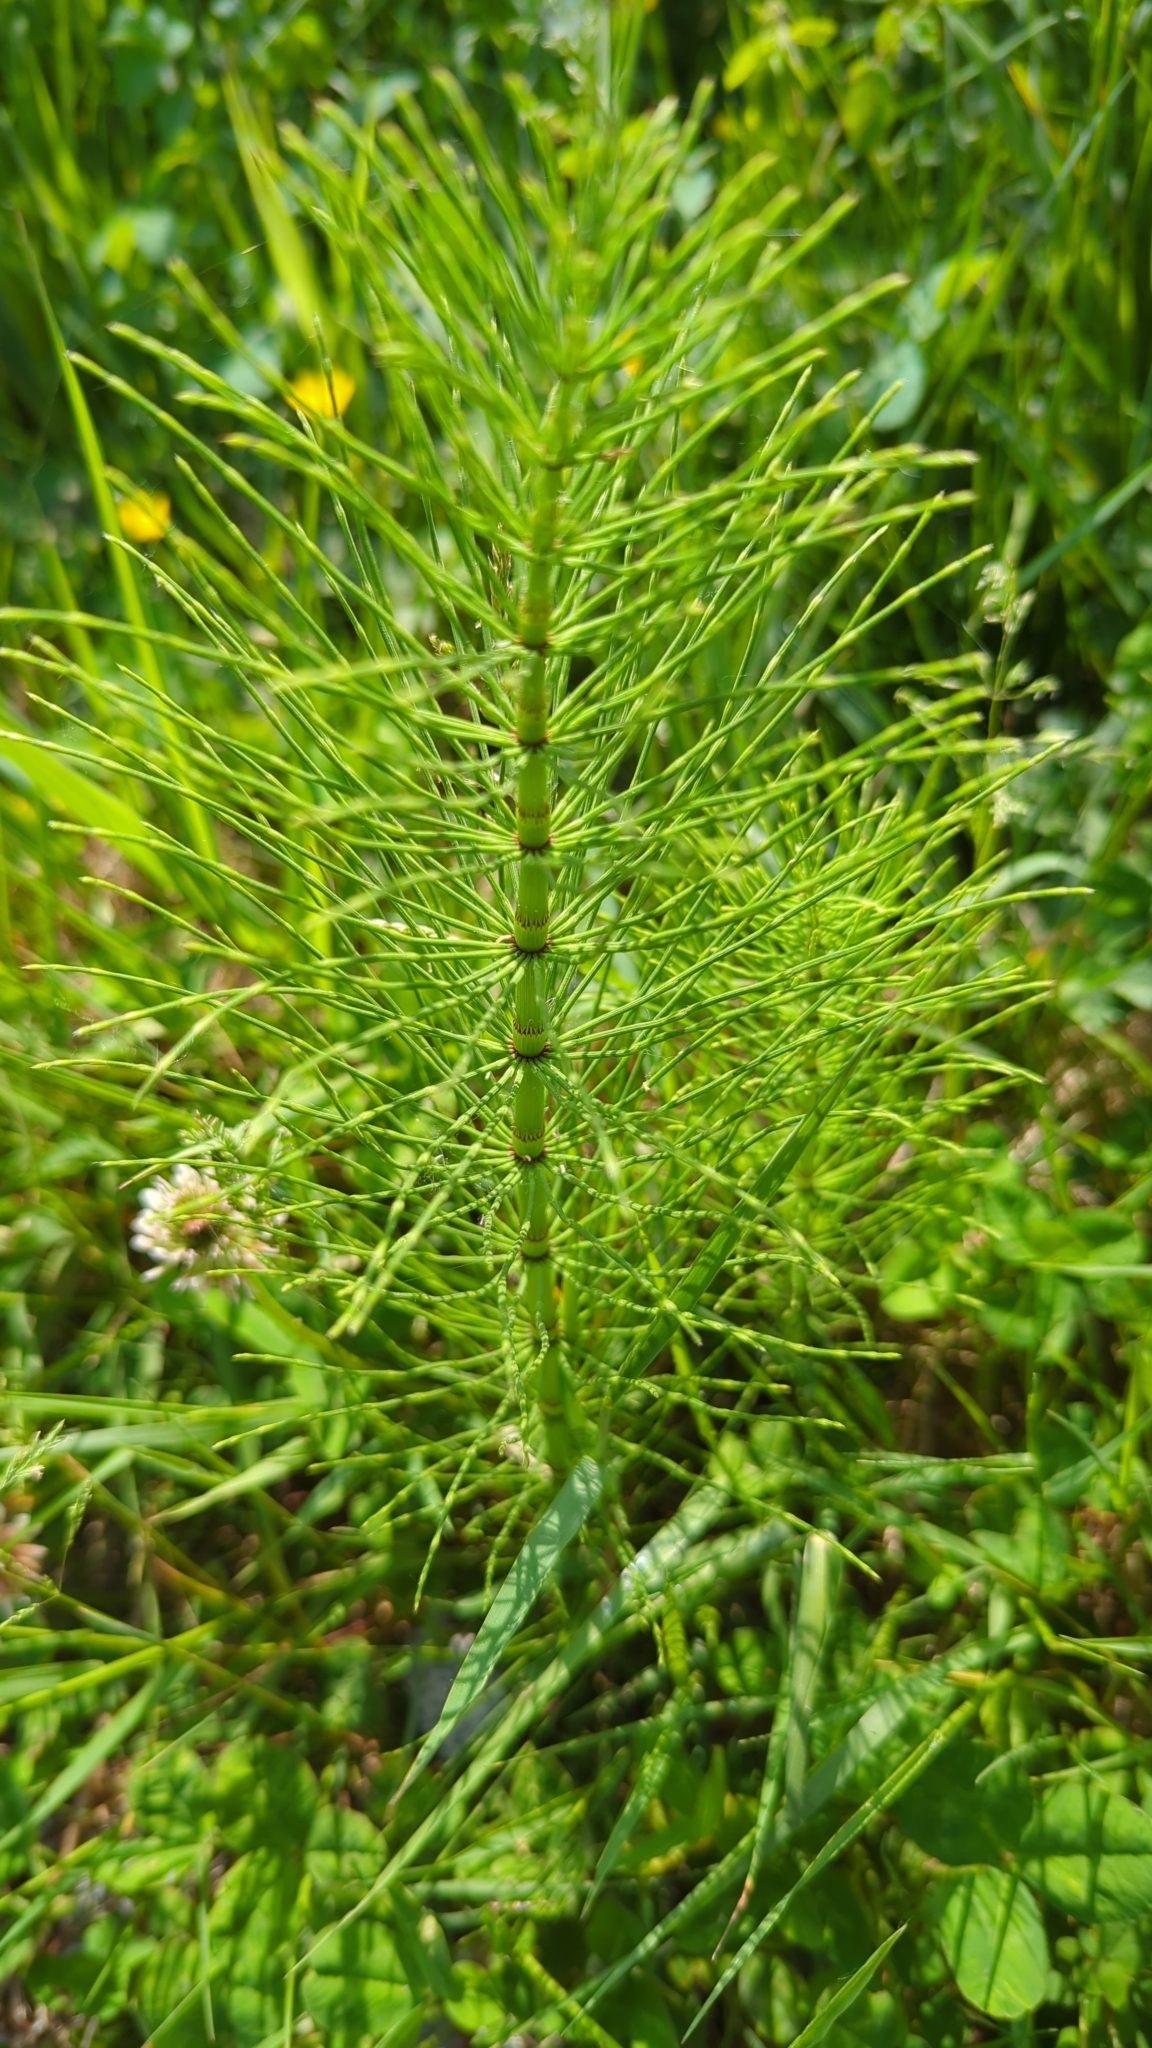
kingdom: Plantae
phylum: Tracheophyta
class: Polypodiopsida
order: Equisetales
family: Equisetaceae
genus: Equisetum
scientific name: Equisetum braunii
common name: Braun's horsetail
